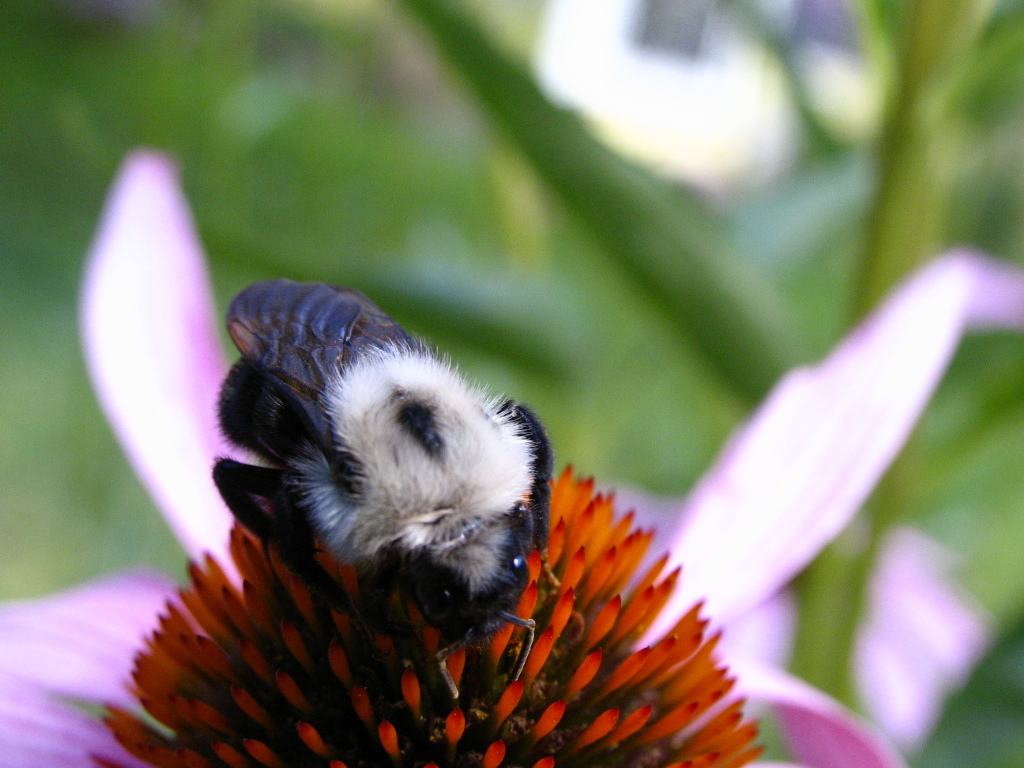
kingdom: Animalia
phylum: Arthropoda
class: Insecta
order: Hymenoptera
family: Apidae
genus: Bombus
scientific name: Bombus citrinus
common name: Lemon cuckoo bumble bee
